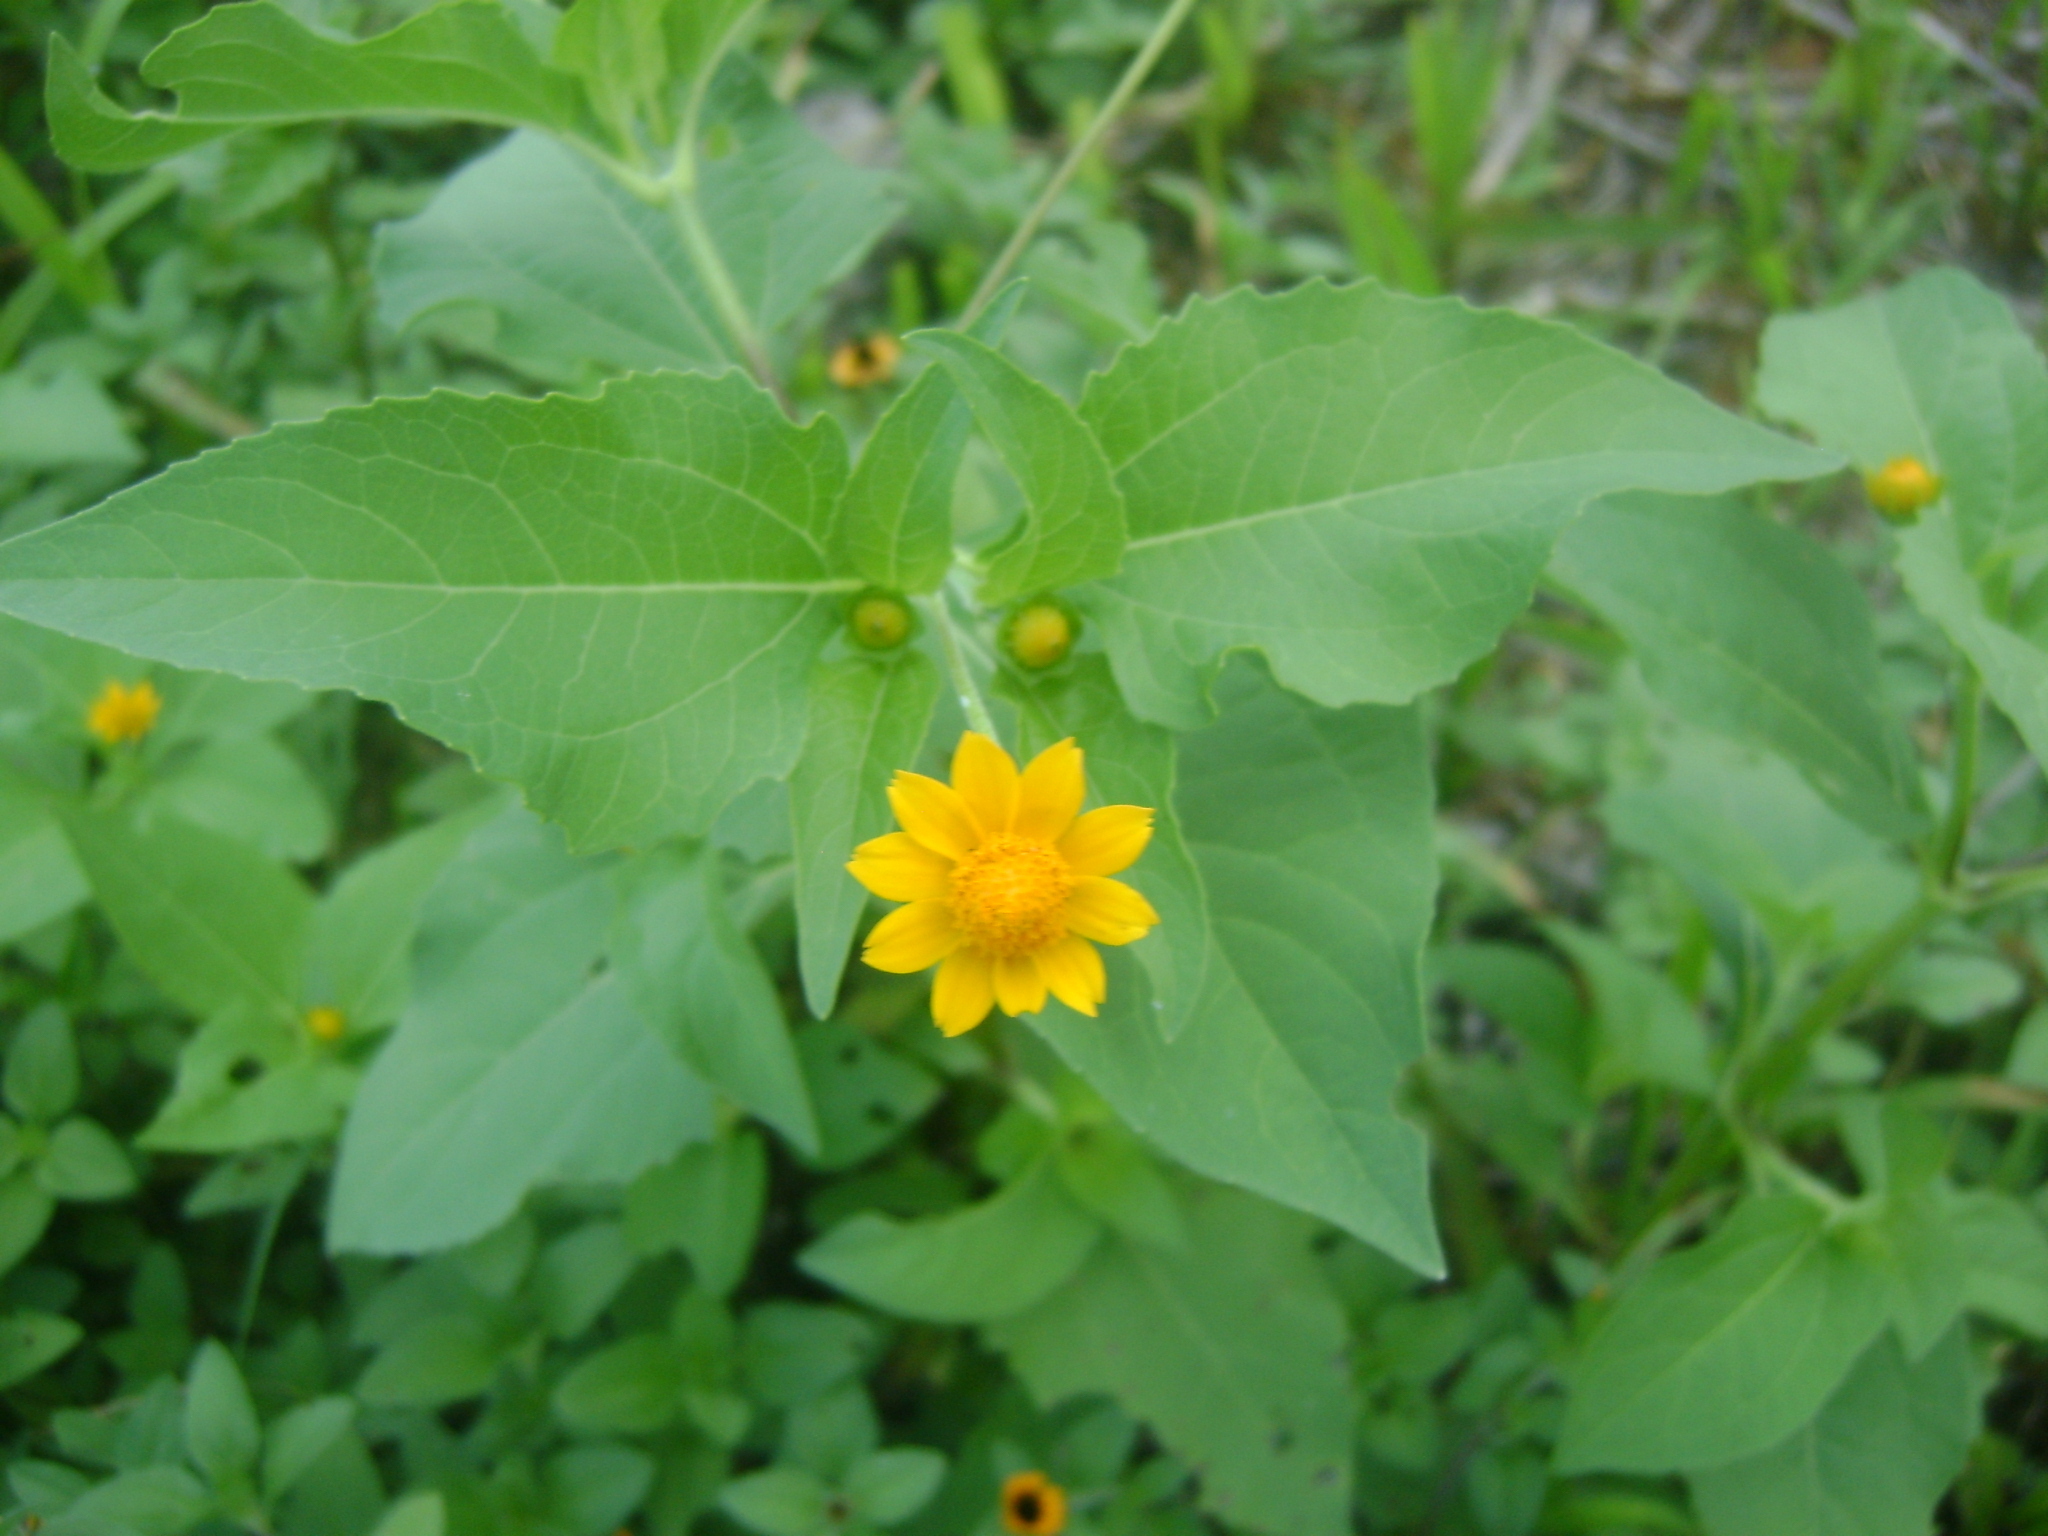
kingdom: Plantae
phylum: Tracheophyta
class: Magnoliopsida
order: Asterales
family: Asteraceae
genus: Melampodium
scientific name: Melampodium divaricatum
